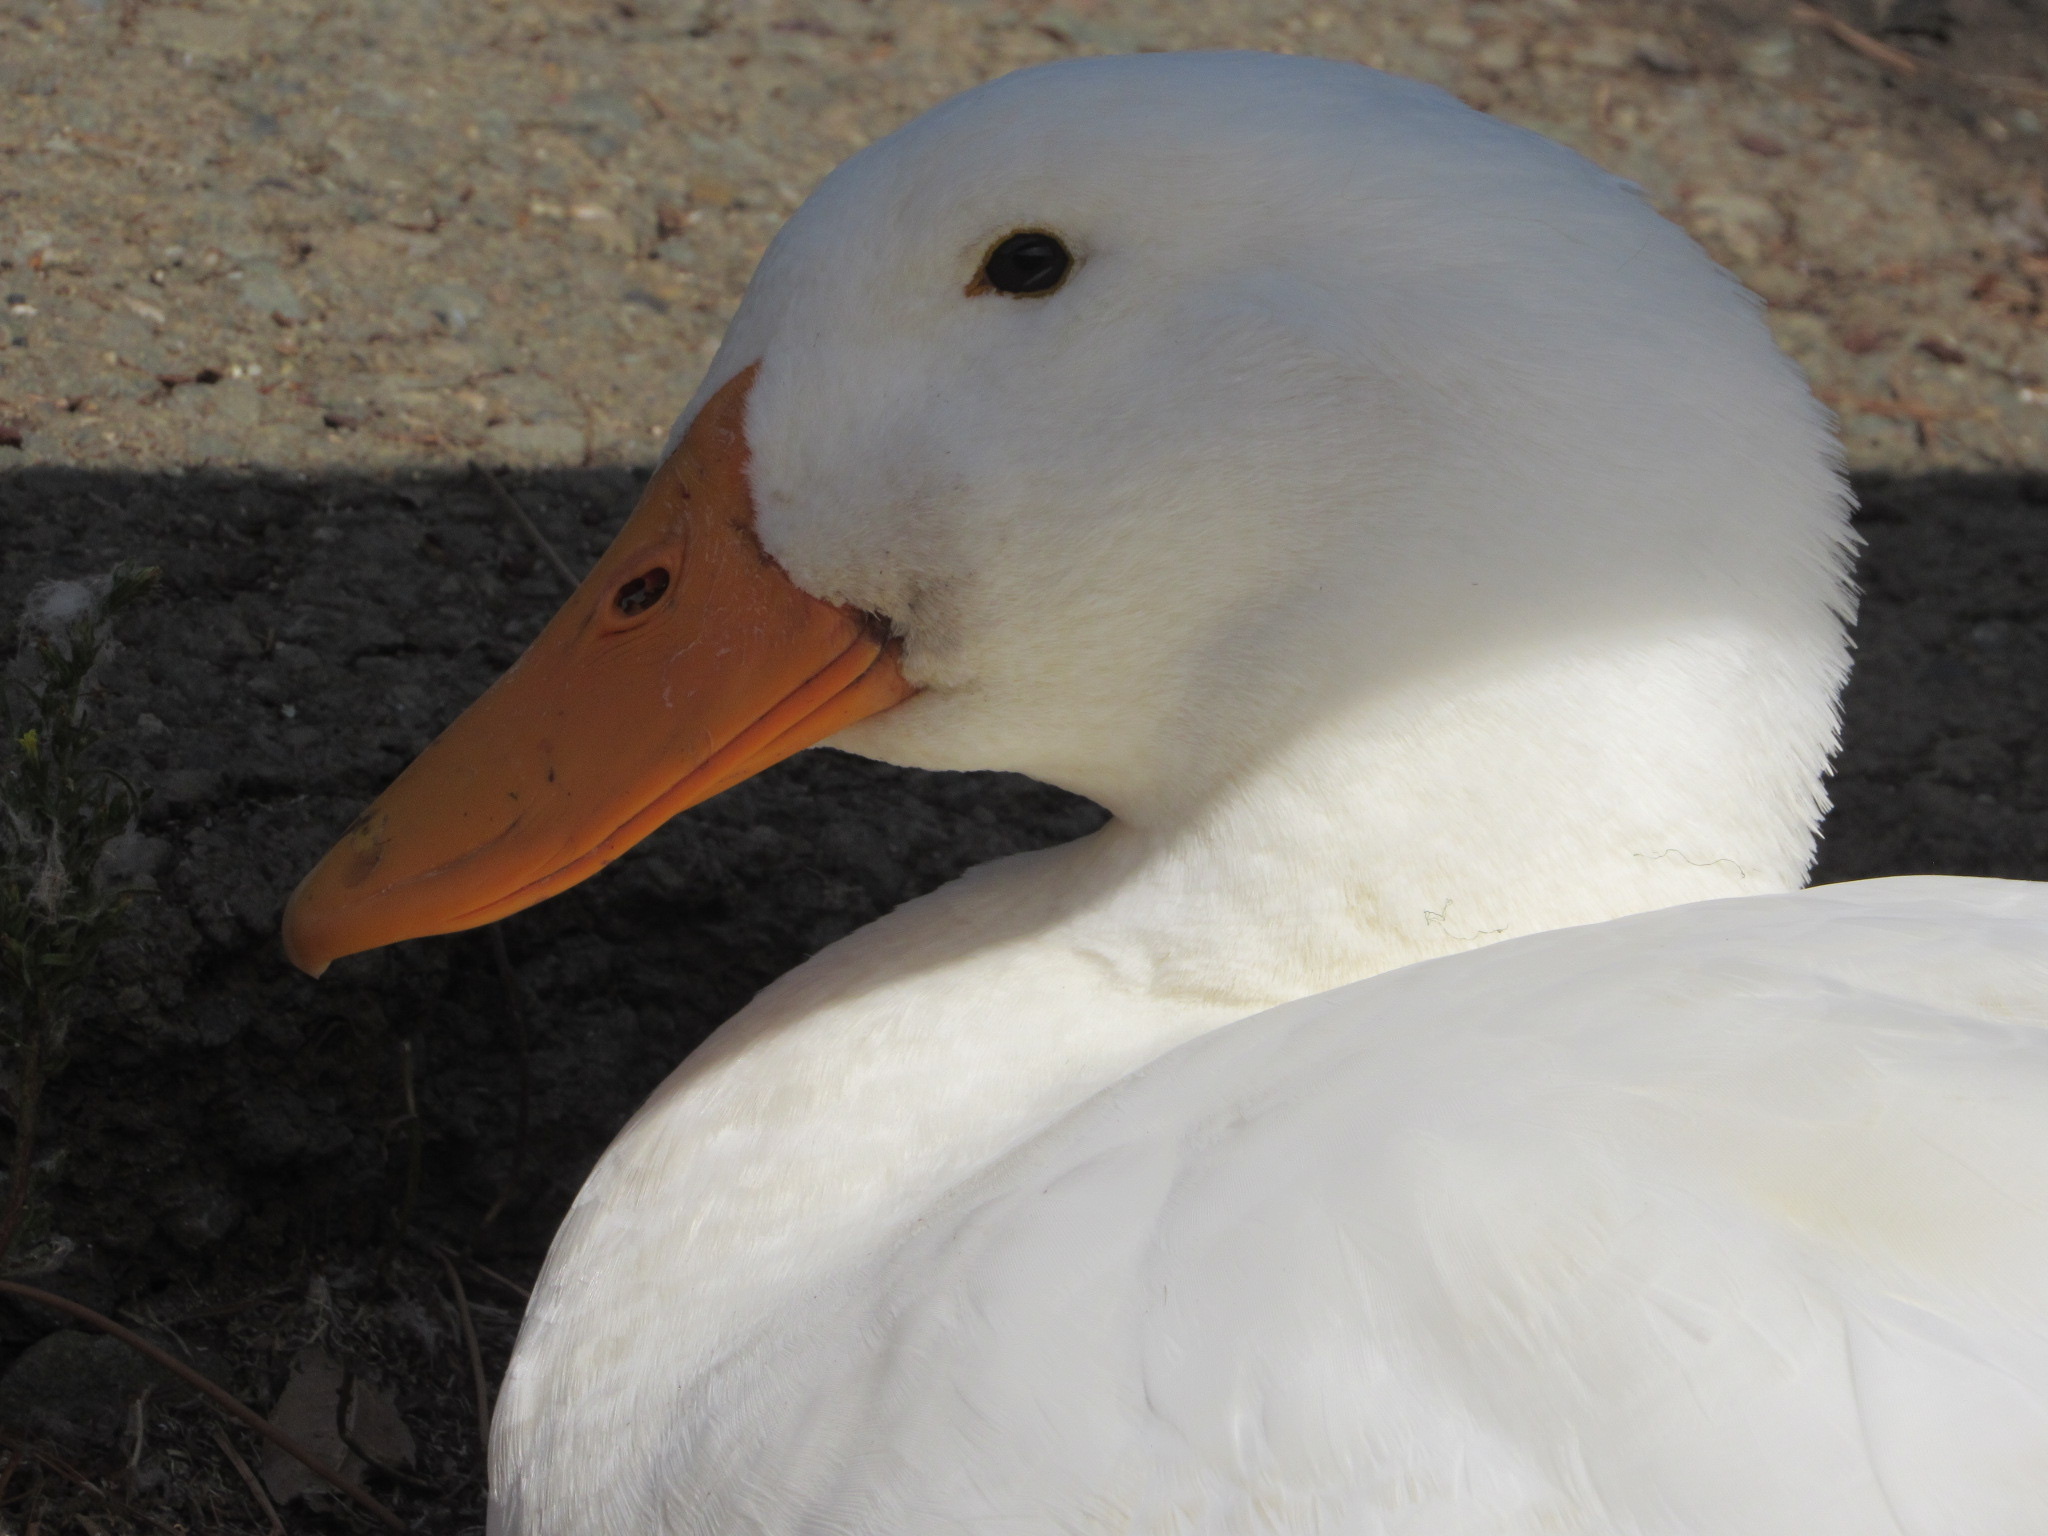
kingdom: Animalia
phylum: Chordata
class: Aves
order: Anseriformes
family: Anatidae
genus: Anas
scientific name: Anas platyrhynchos
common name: Mallard
